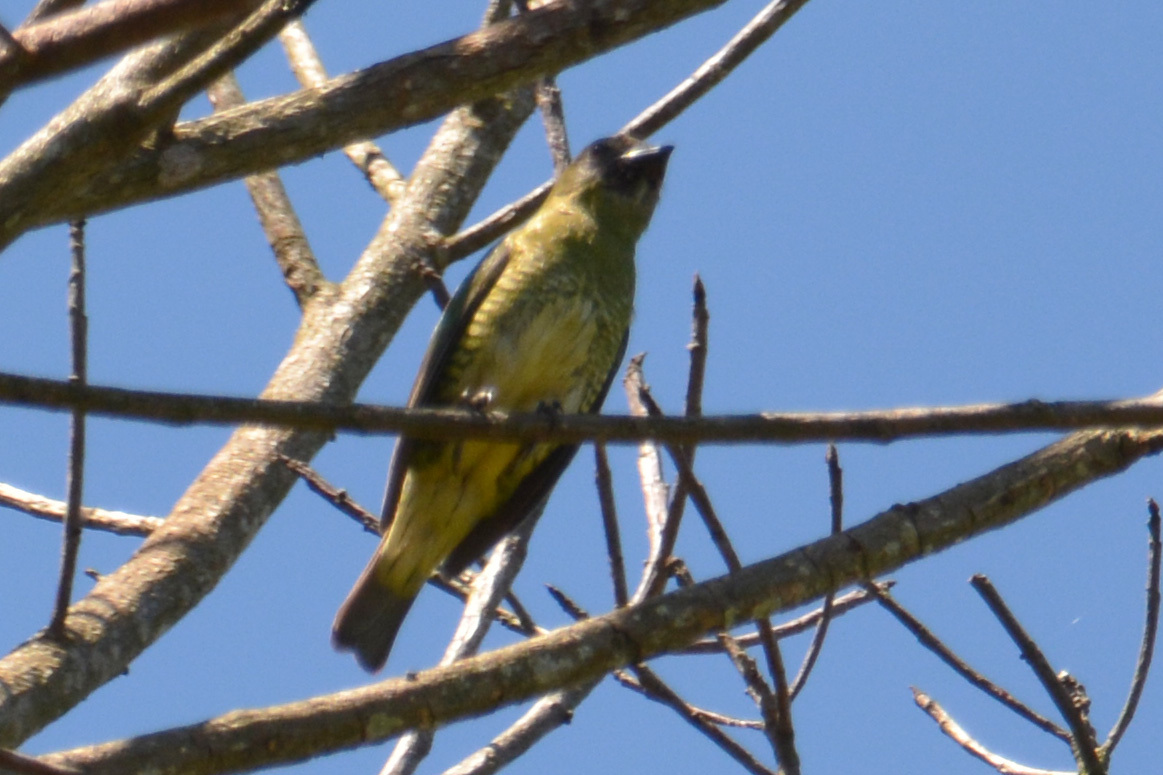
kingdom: Animalia
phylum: Chordata
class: Aves
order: Passeriformes
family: Thraupidae
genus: Tersina
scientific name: Tersina viridis
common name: Swallow tanager
